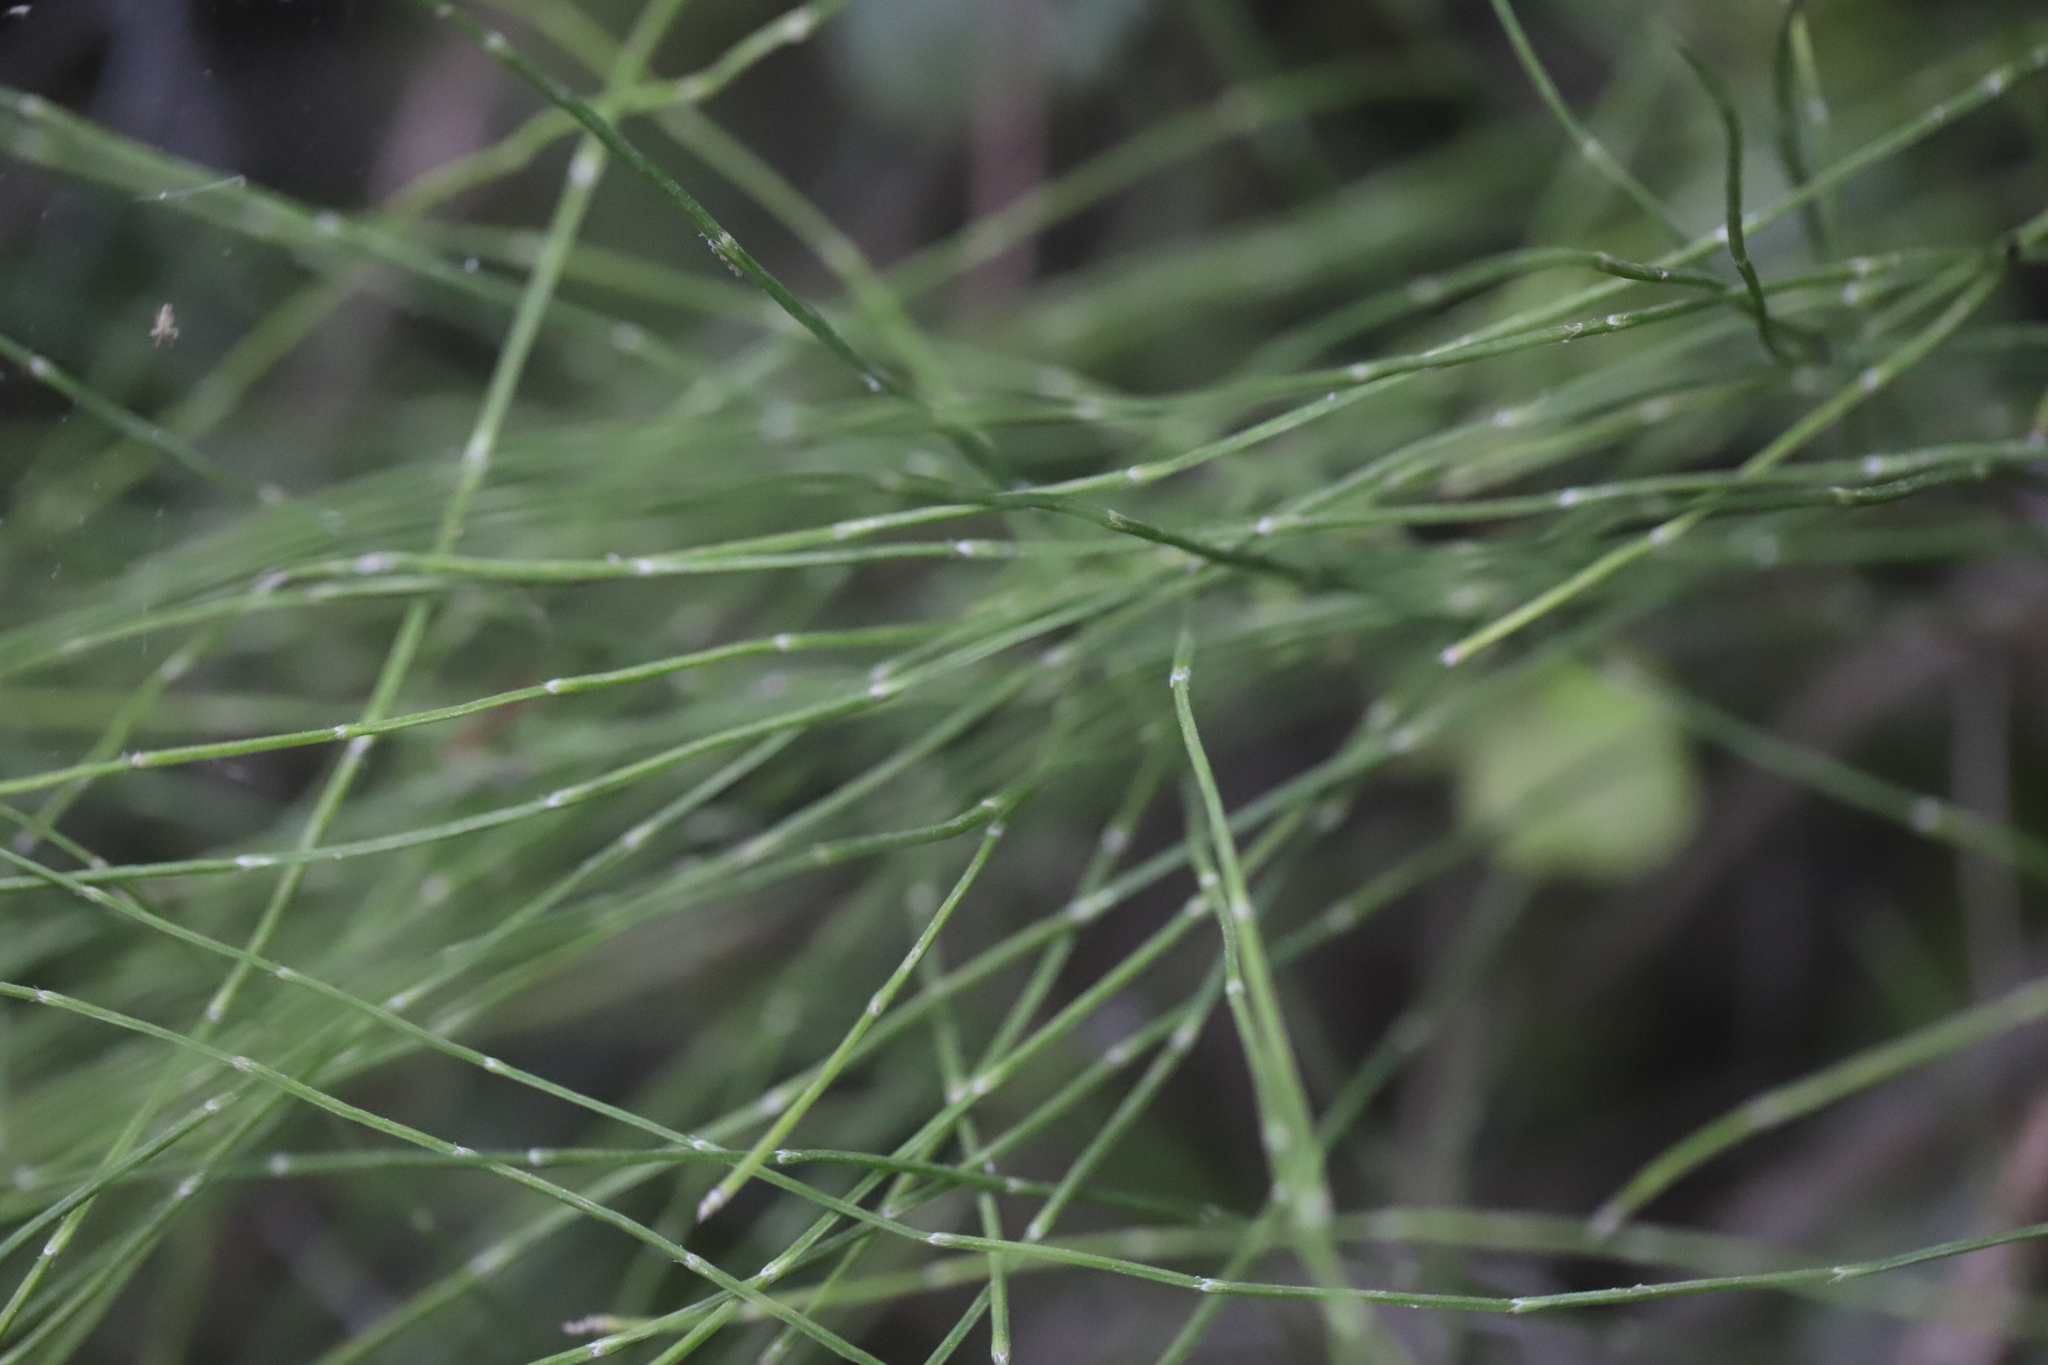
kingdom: Plantae
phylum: Tracheophyta
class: Polypodiopsida
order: Equisetales
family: Equisetaceae
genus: Equisetum
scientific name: Equisetum bogotense
